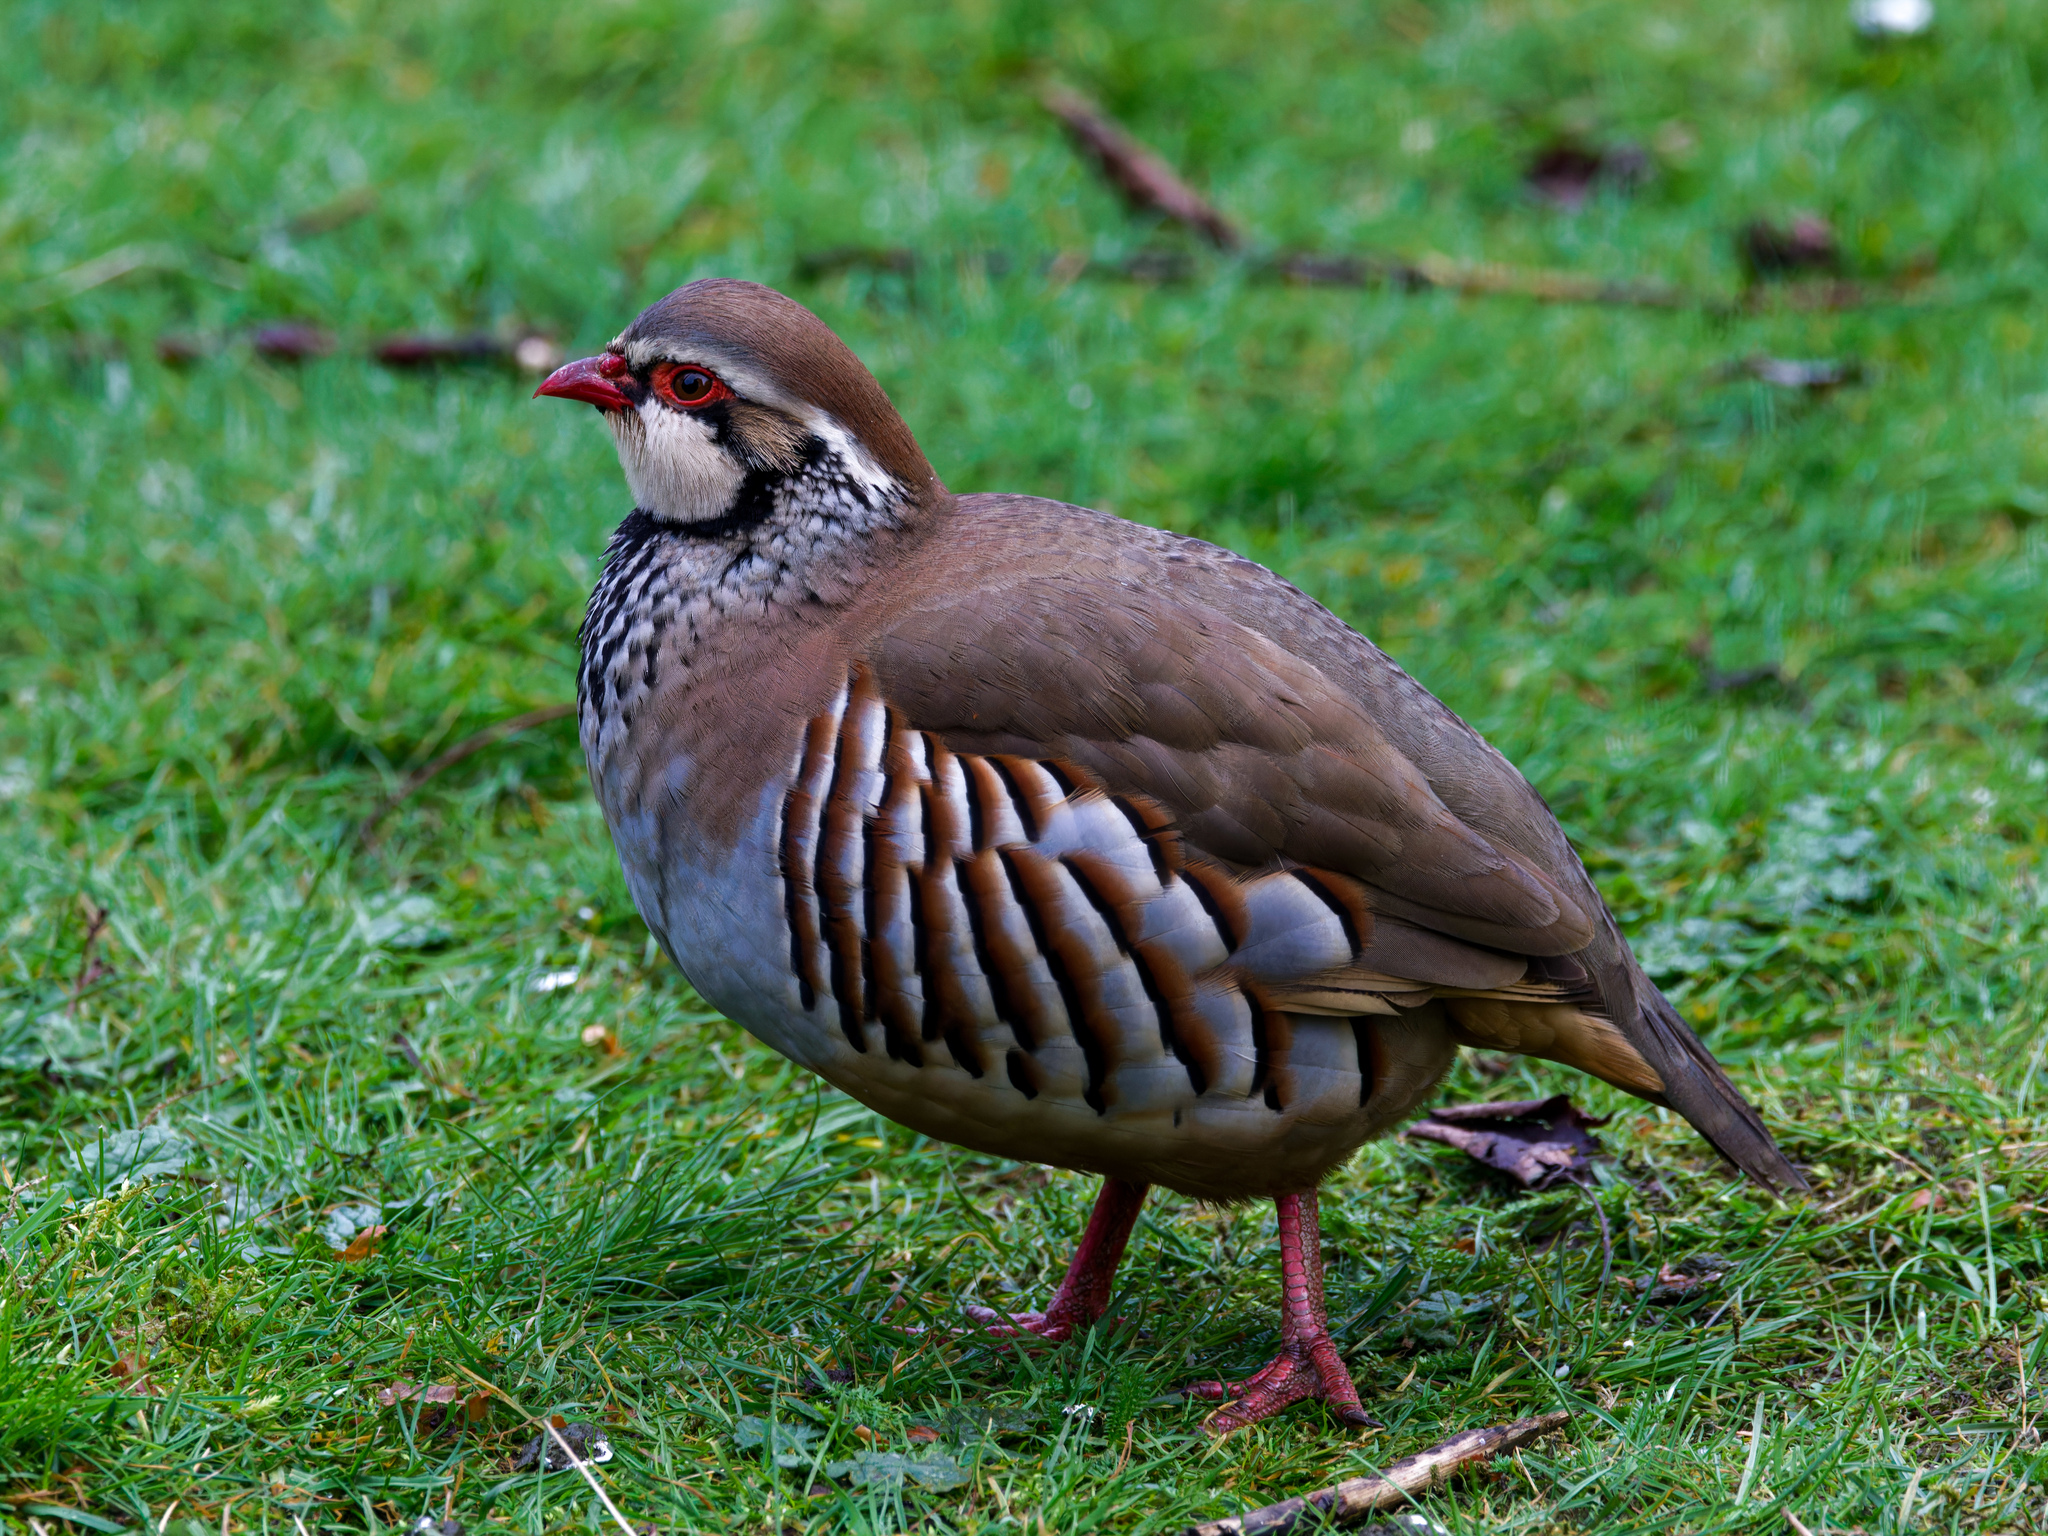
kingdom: Animalia
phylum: Chordata
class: Aves
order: Galliformes
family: Phasianidae
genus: Alectoris
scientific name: Alectoris rufa
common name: Red-legged partridge
